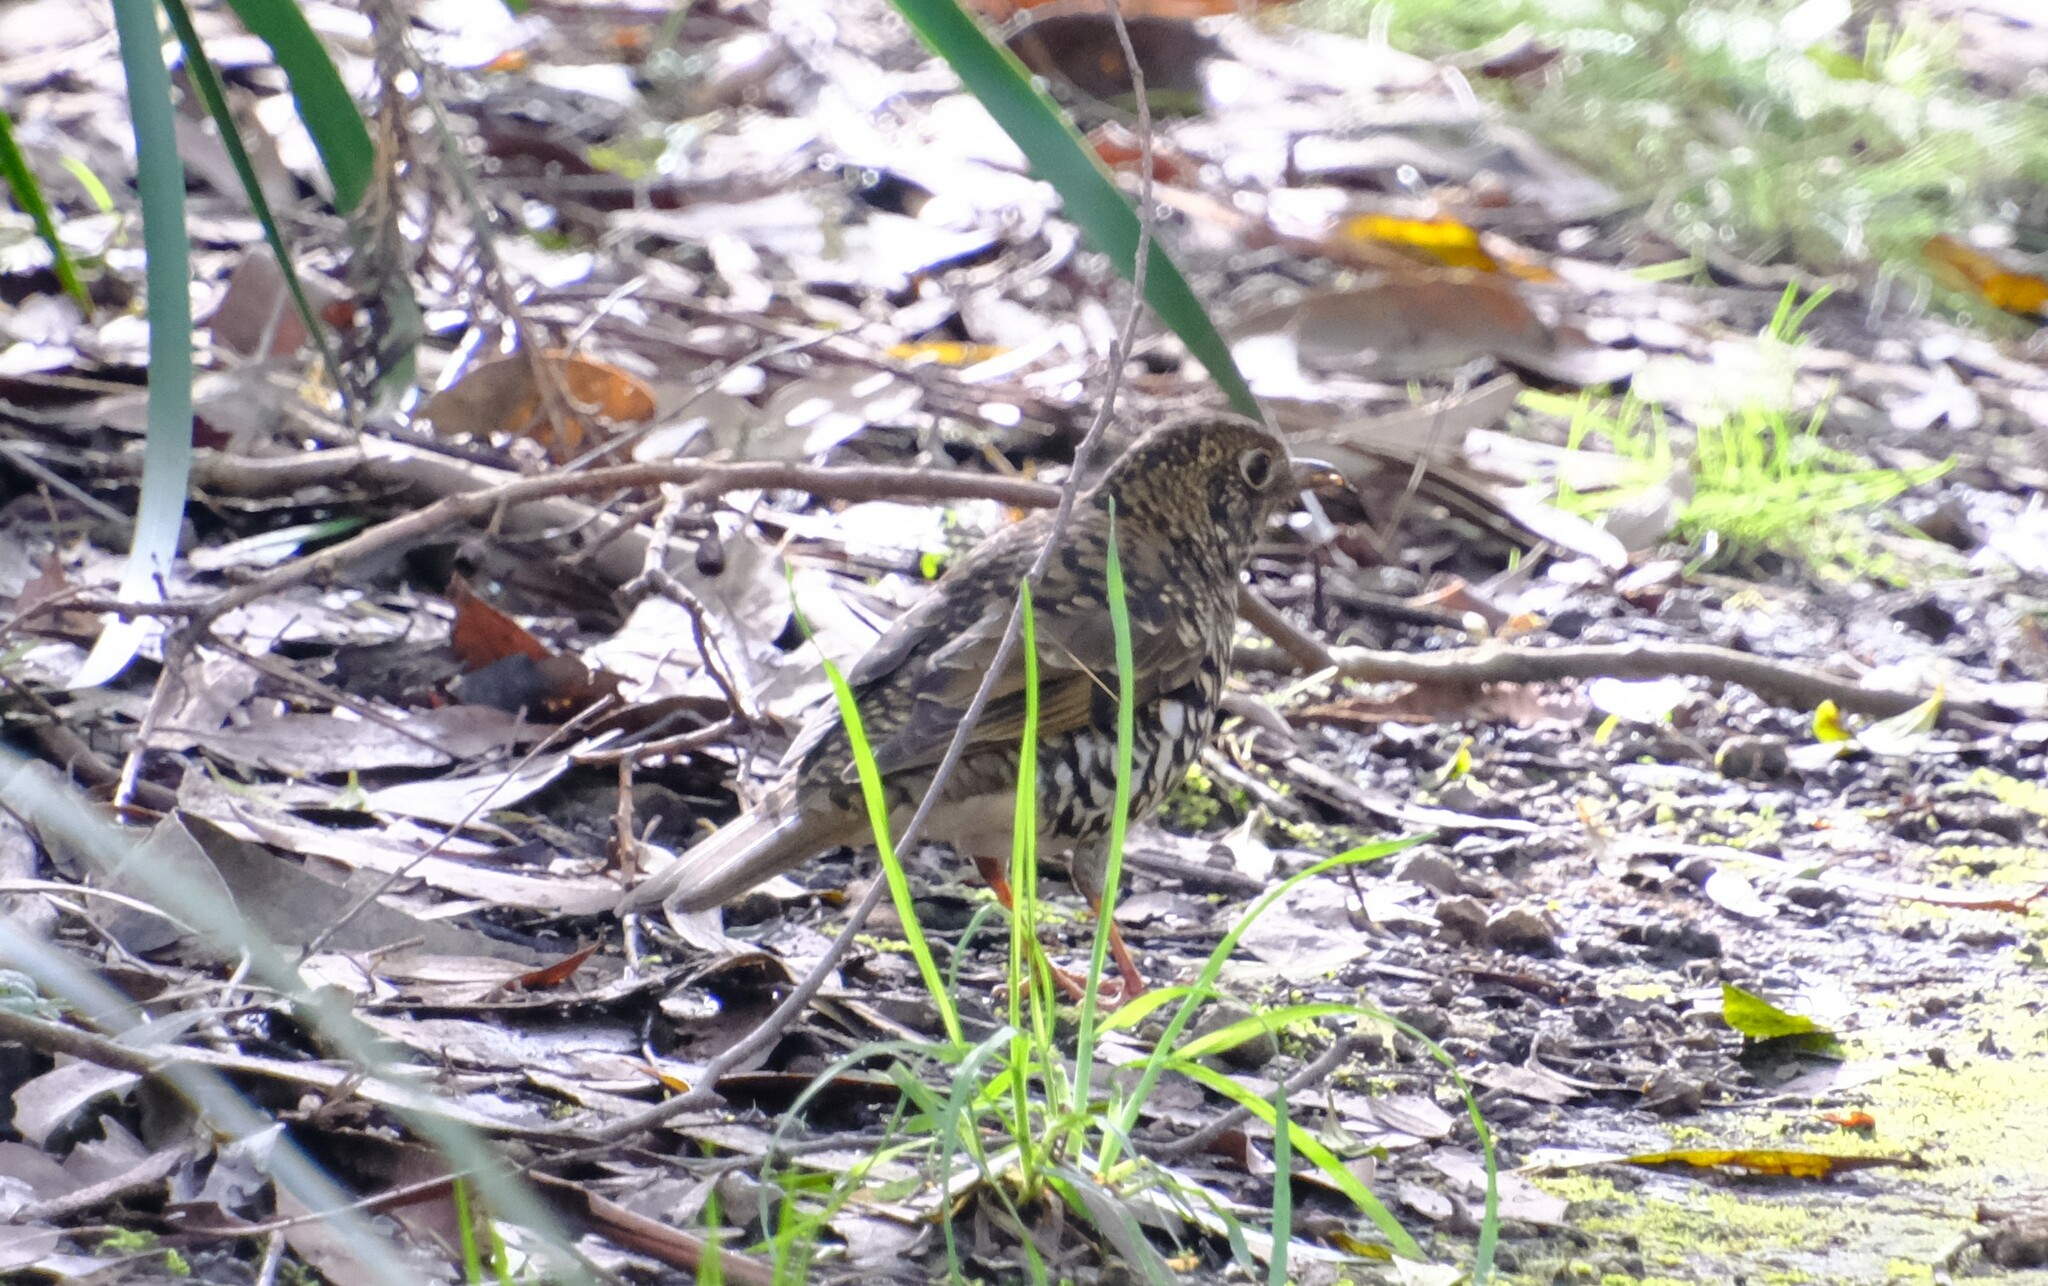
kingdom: Animalia
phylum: Chordata
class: Aves
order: Passeriformes
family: Turdidae
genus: Zoothera
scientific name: Zoothera lunulata
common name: Bassian thrush
